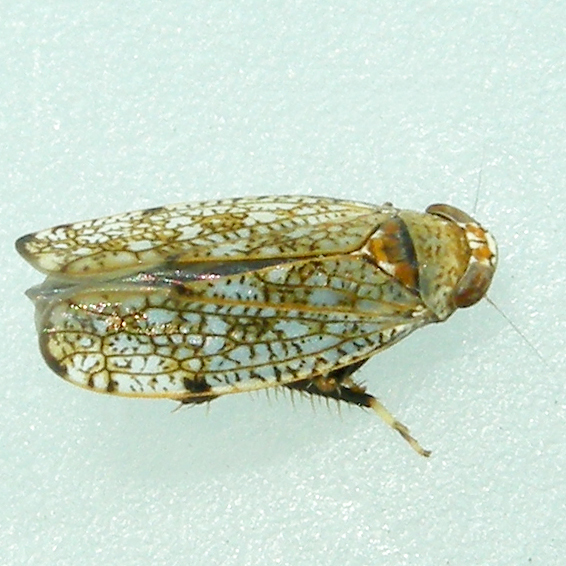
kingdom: Animalia
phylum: Arthropoda
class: Insecta
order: Hemiptera
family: Cicadellidae
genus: Orientus
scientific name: Orientus ishidae
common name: Japanese leafhopper
